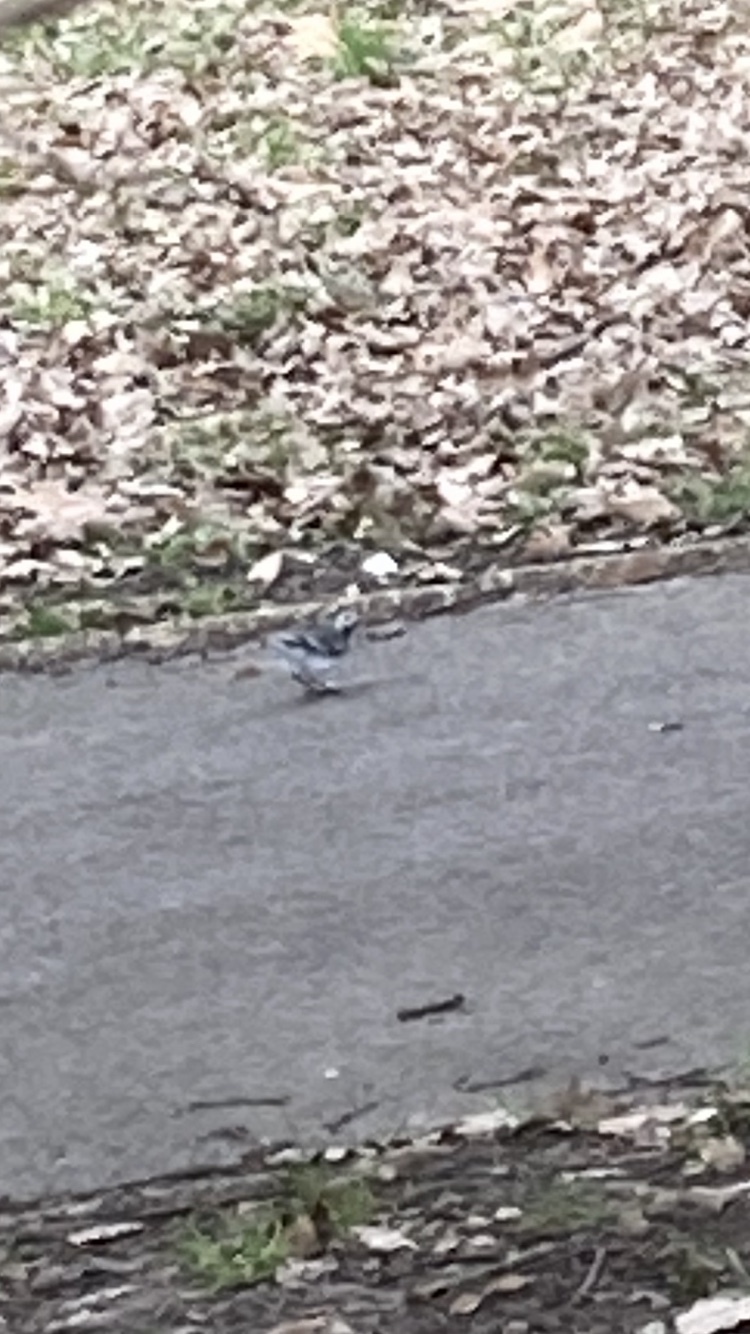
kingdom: Animalia
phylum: Chordata
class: Aves
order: Passeriformes
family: Motacillidae
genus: Motacilla
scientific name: Motacilla alba
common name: White wagtail
